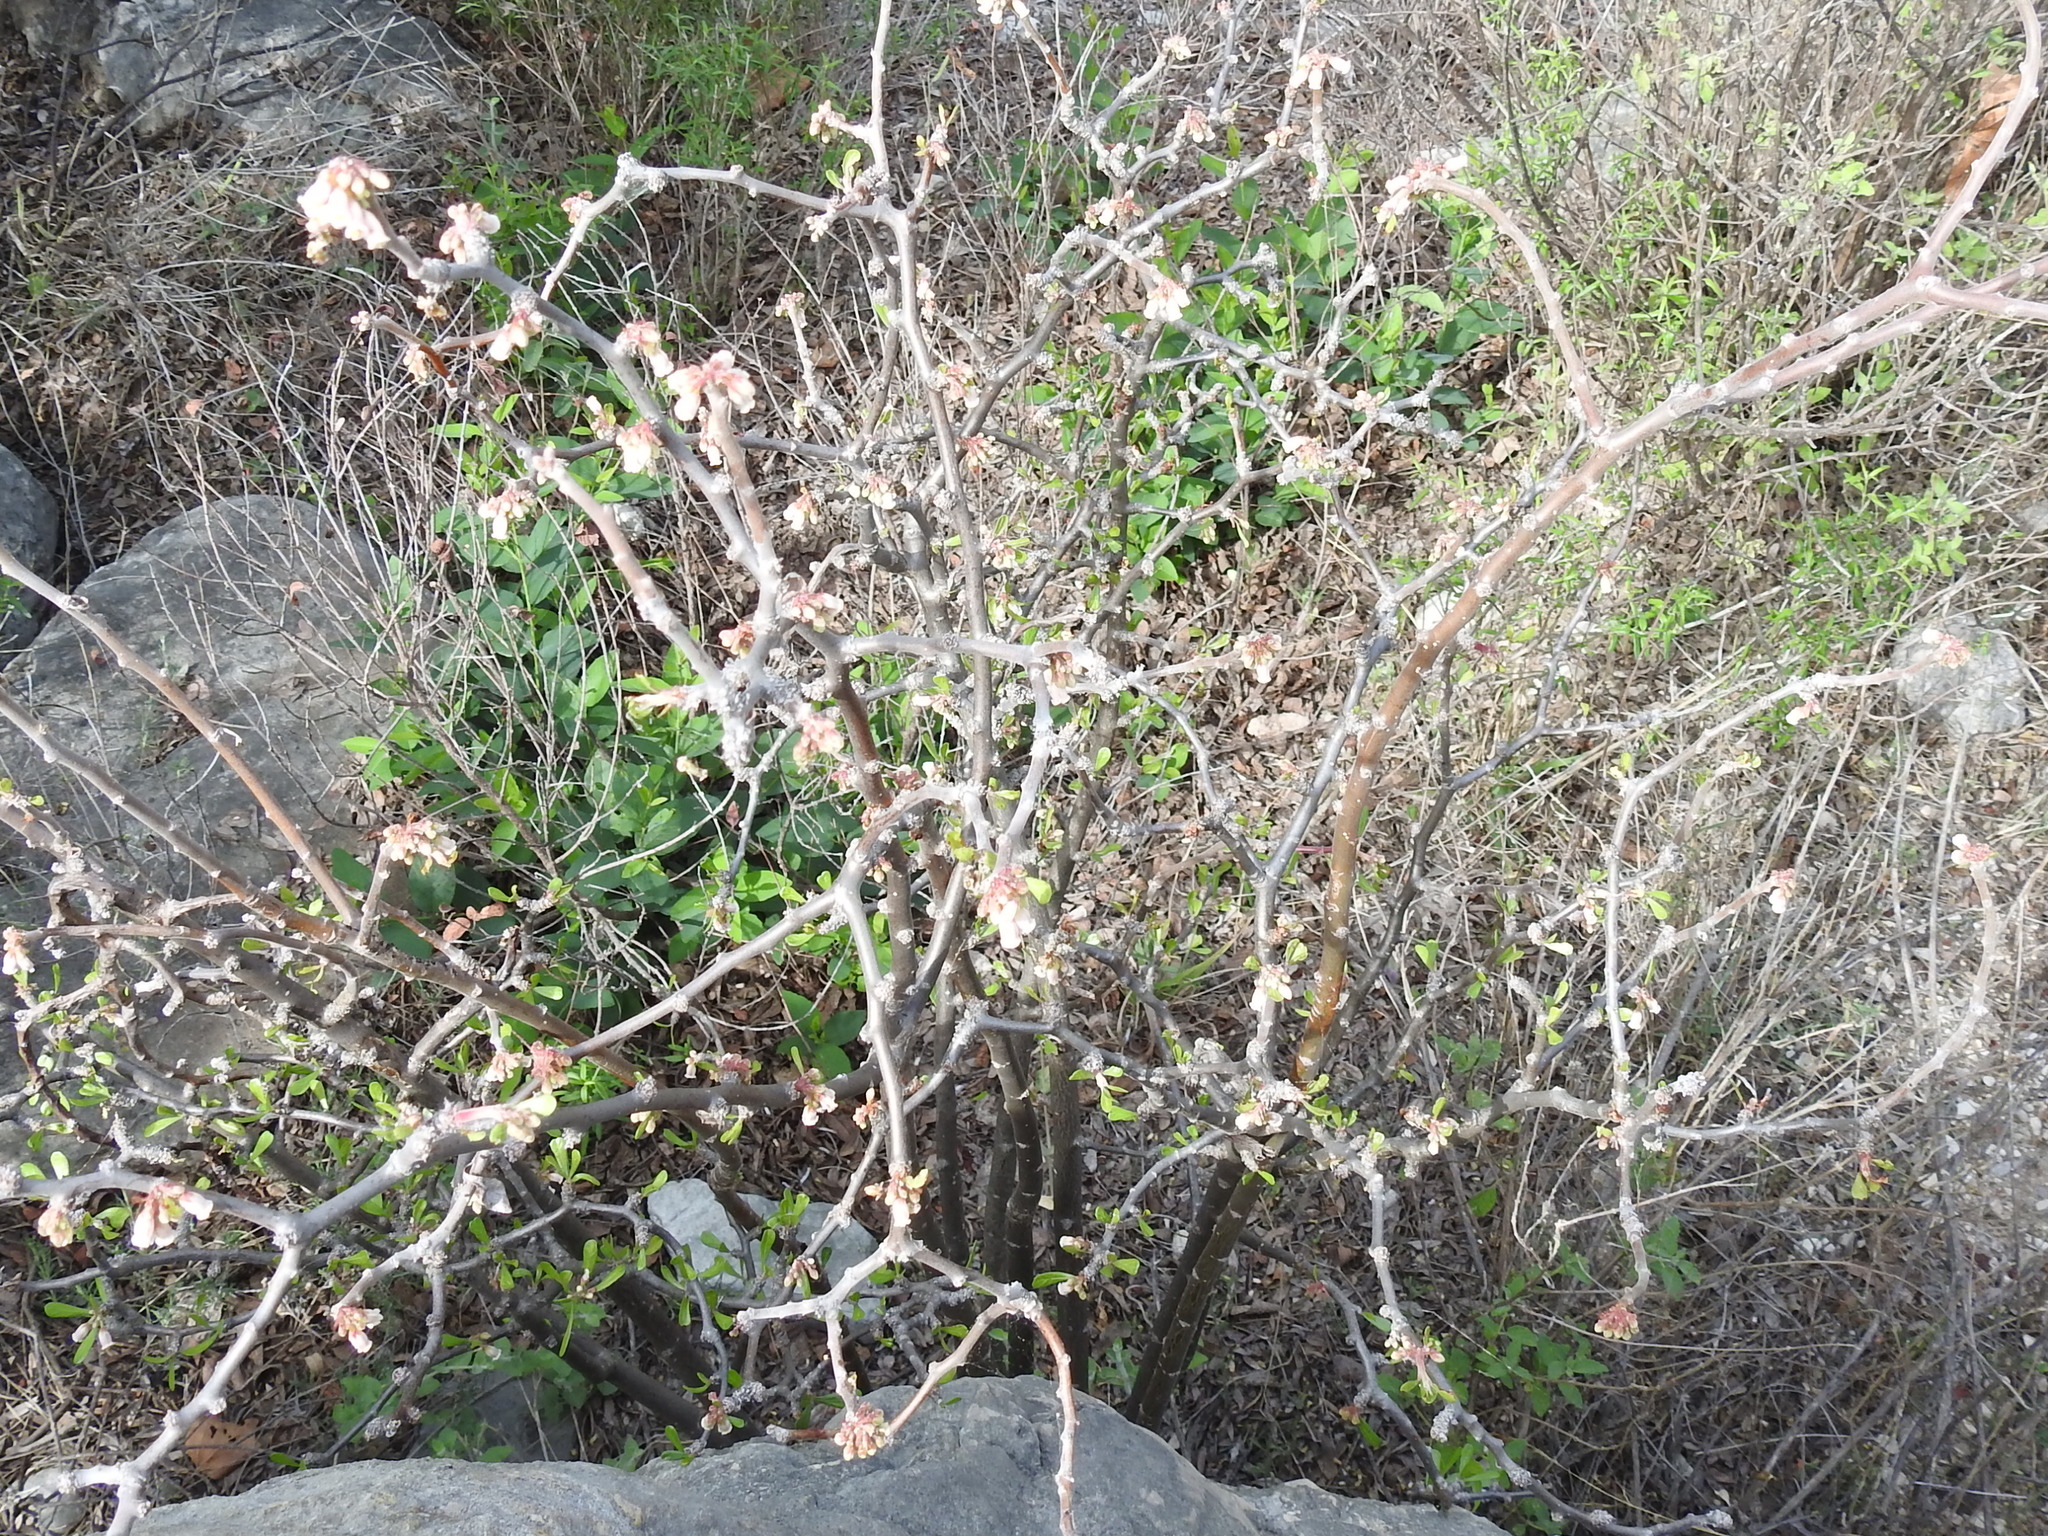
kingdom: Plantae
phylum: Tracheophyta
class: Magnoliopsida
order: Malpighiales
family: Euphorbiaceae
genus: Jatropha
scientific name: Jatropha dioica
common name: Leatherstem
